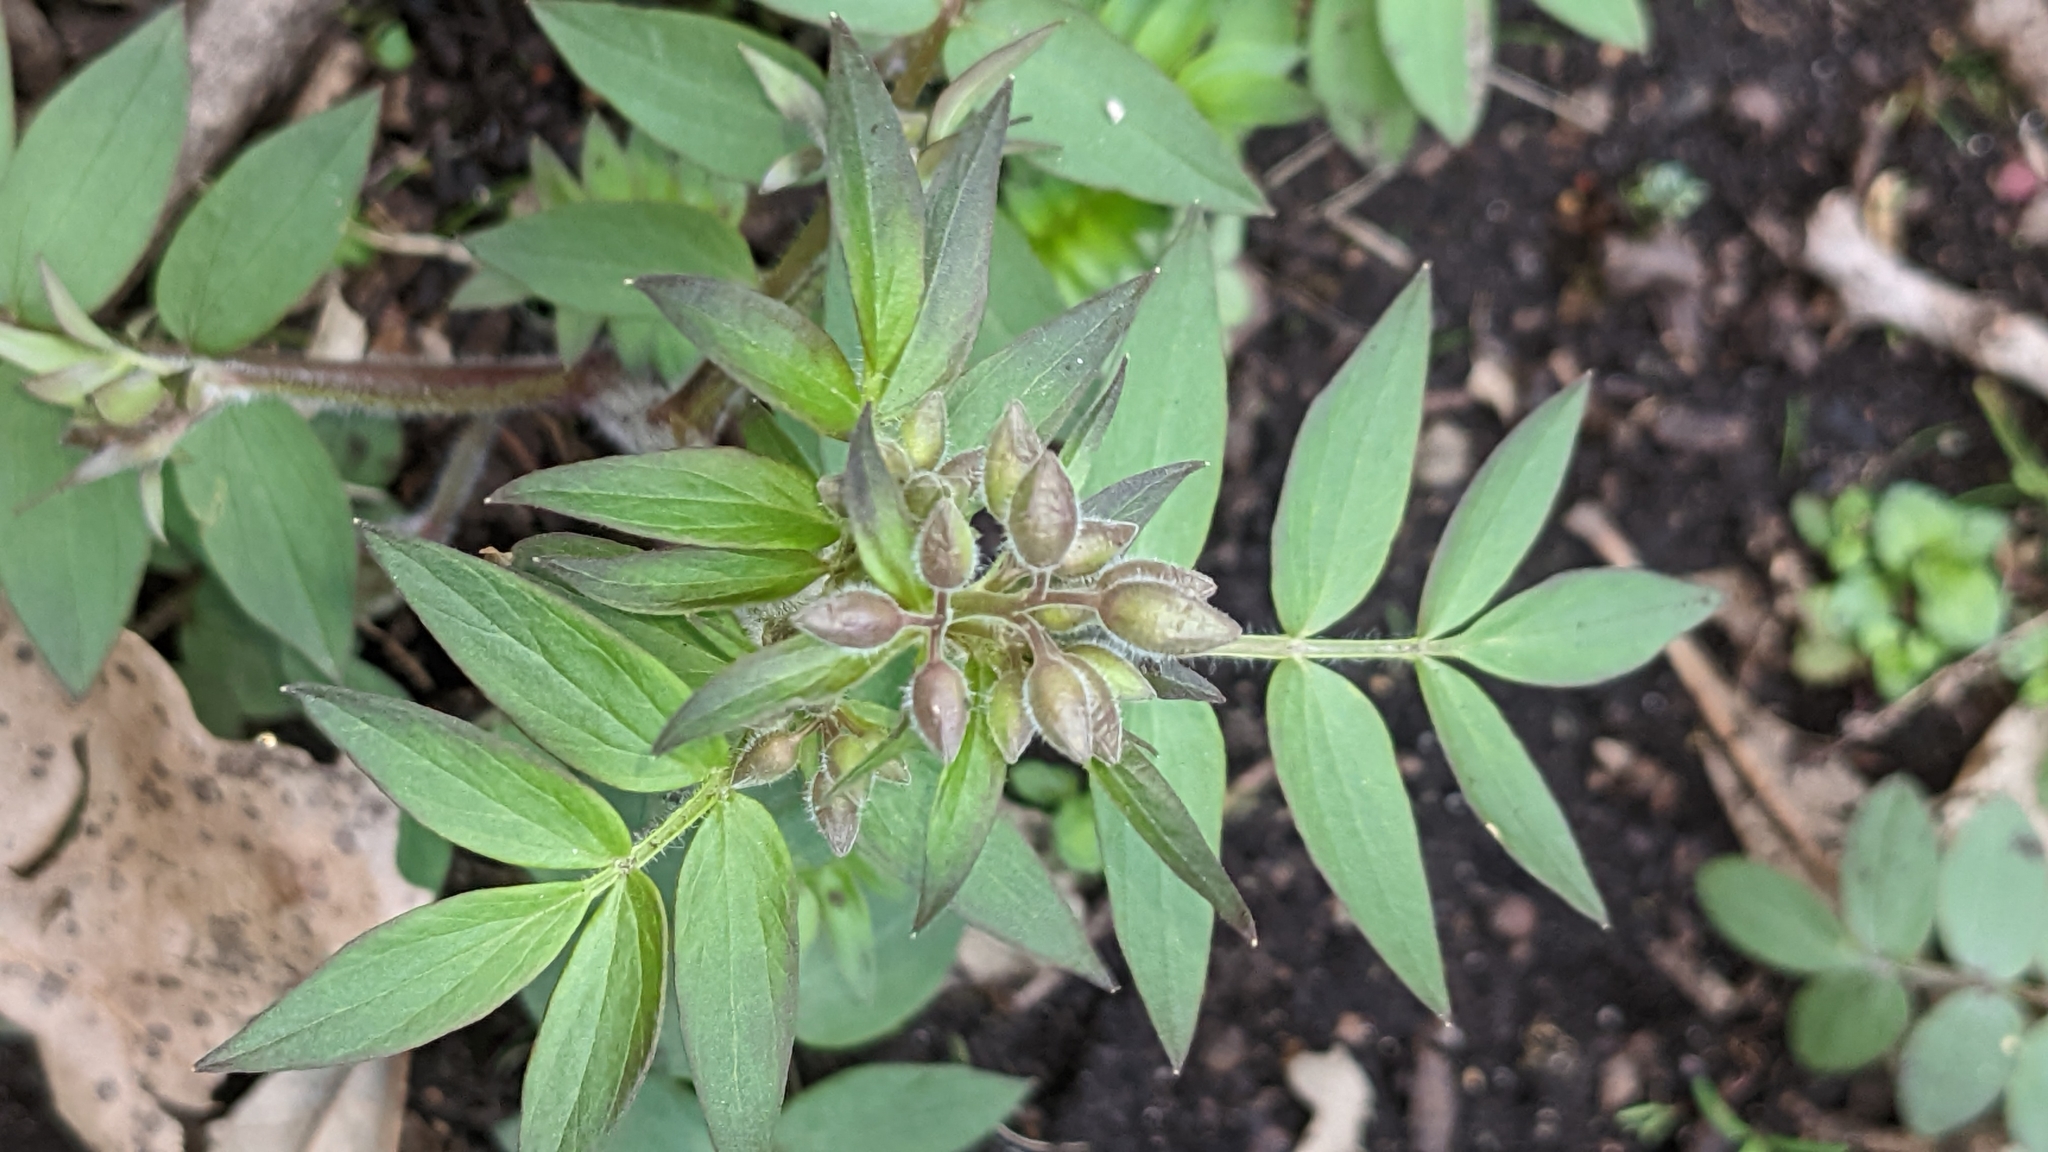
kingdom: Plantae
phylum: Tracheophyta
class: Magnoliopsida
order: Ericales
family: Polemoniaceae
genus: Polemonium
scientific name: Polemonium reptans
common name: Creeping jacob's-ladder
